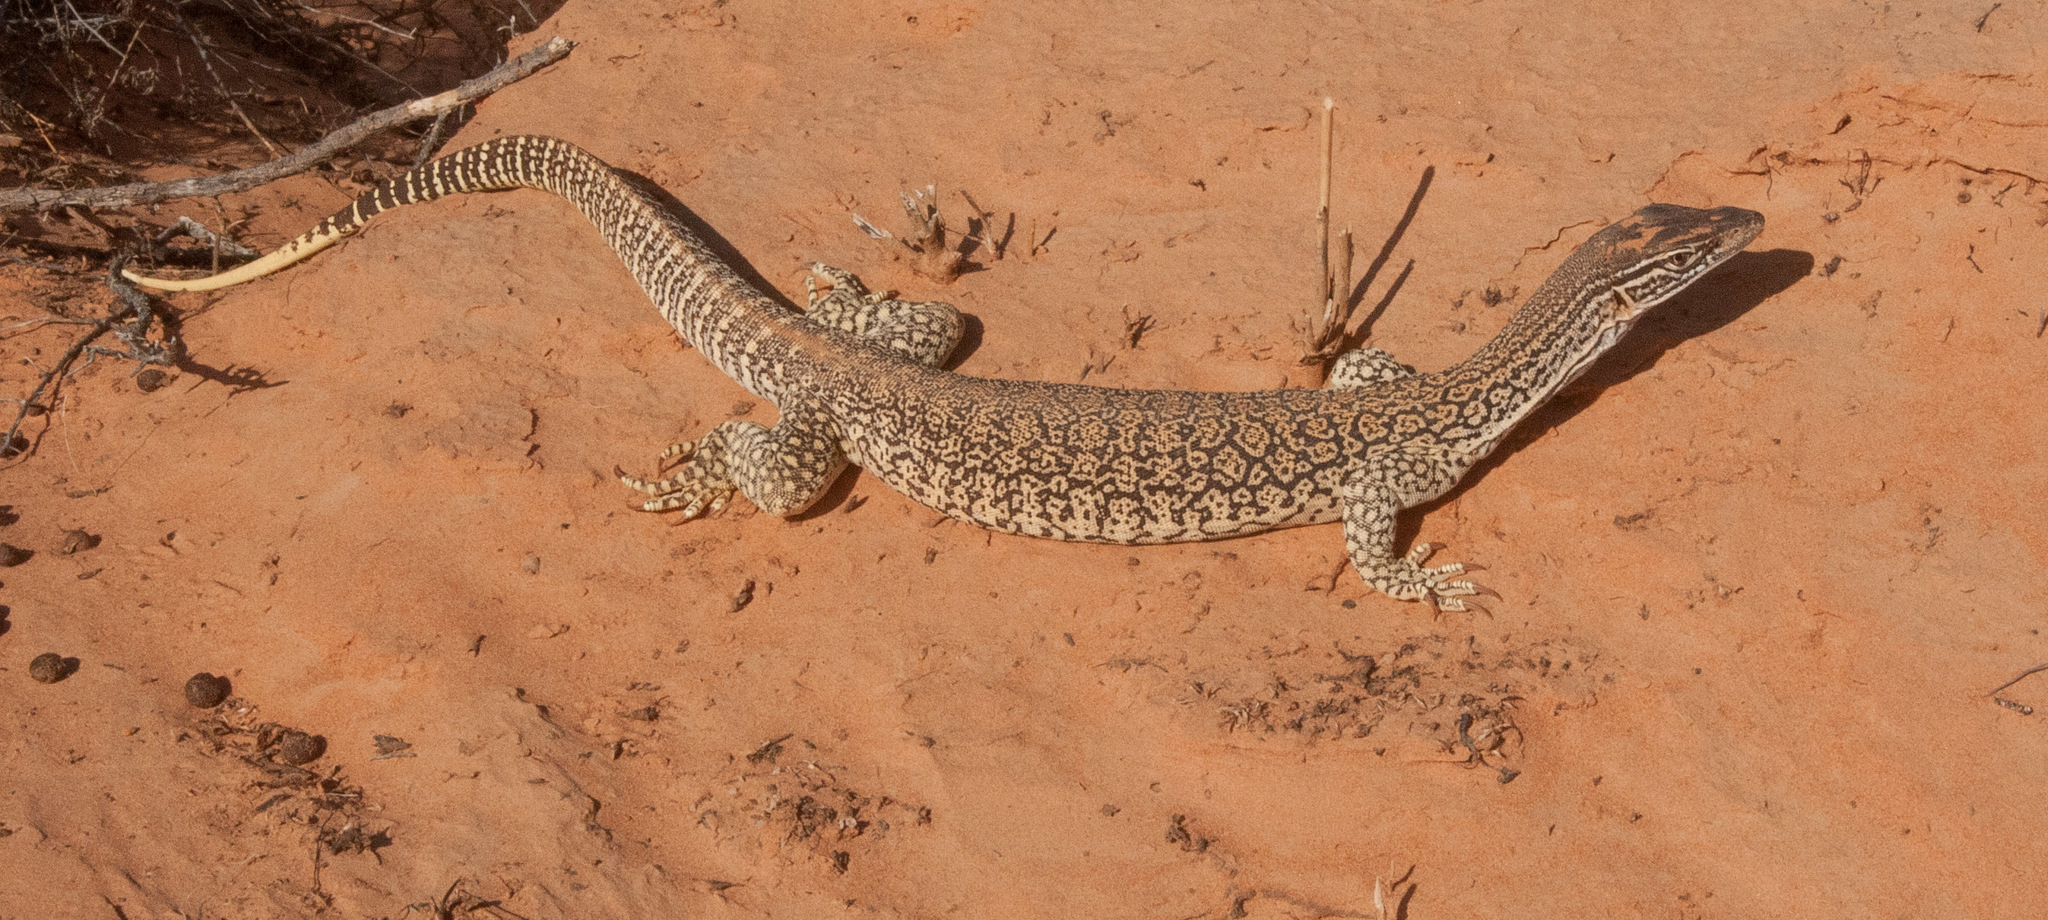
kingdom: Animalia
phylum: Chordata
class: Squamata
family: Varanidae
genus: Varanus
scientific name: Varanus gouldii
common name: Gould's goanna
